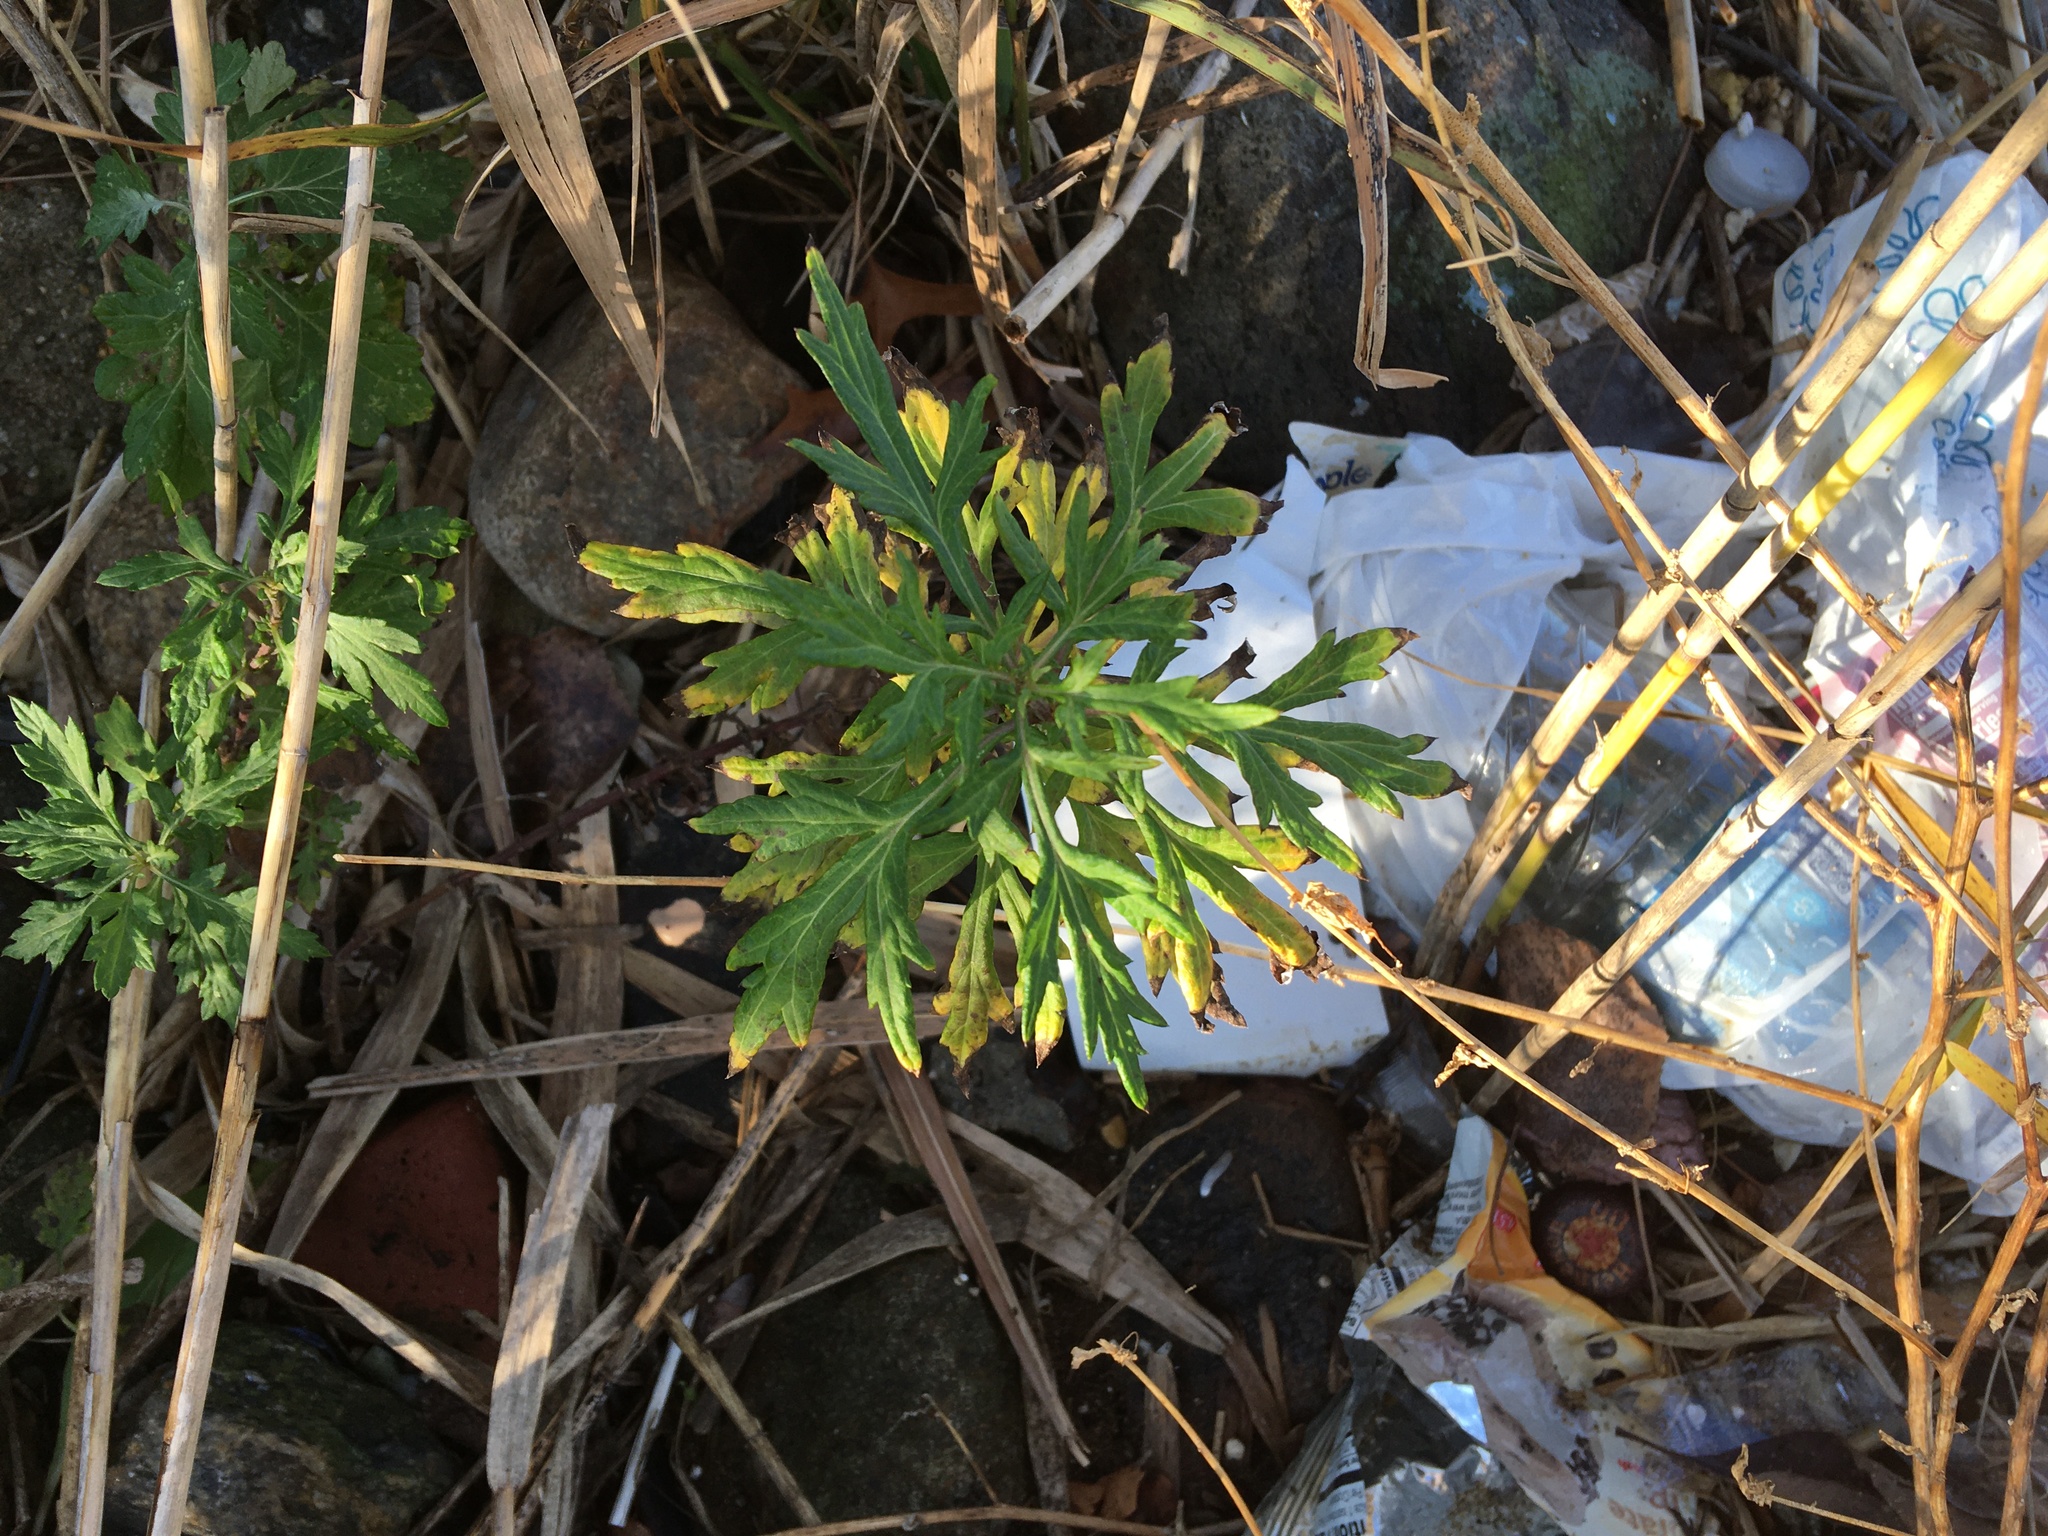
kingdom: Plantae
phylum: Tracheophyta
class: Magnoliopsida
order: Asterales
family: Asteraceae
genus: Artemisia
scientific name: Artemisia vulgaris
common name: Mugwort
